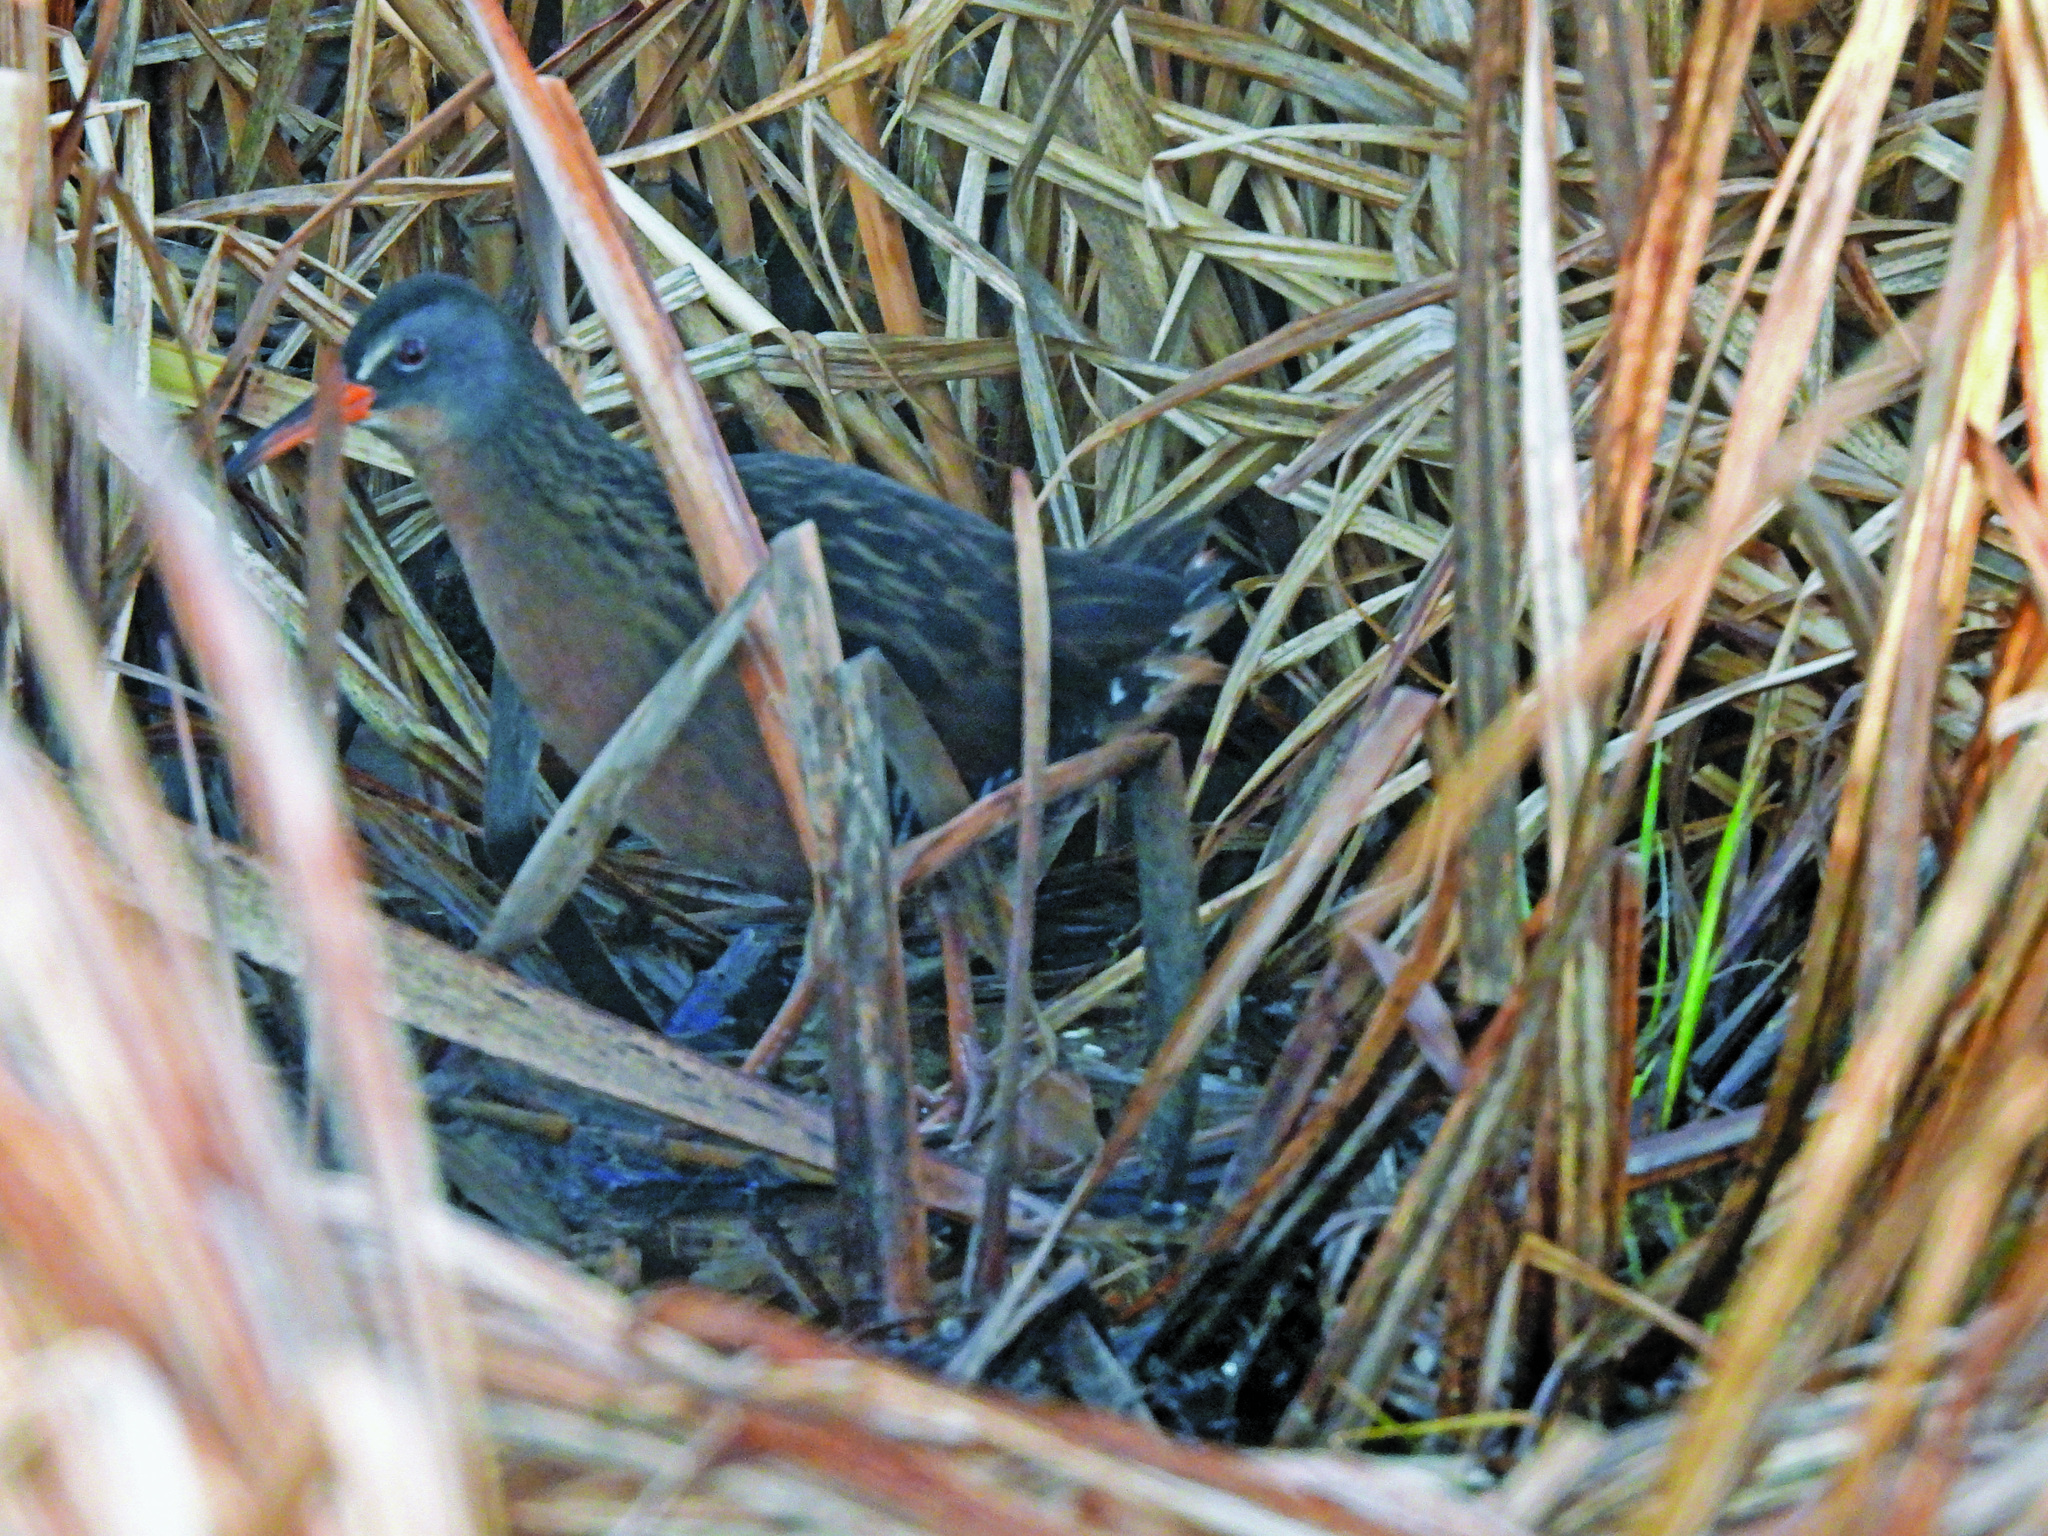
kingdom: Animalia
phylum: Chordata
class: Aves
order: Gruiformes
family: Rallidae
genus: Rallus
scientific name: Rallus limicola
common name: Virginia rail
